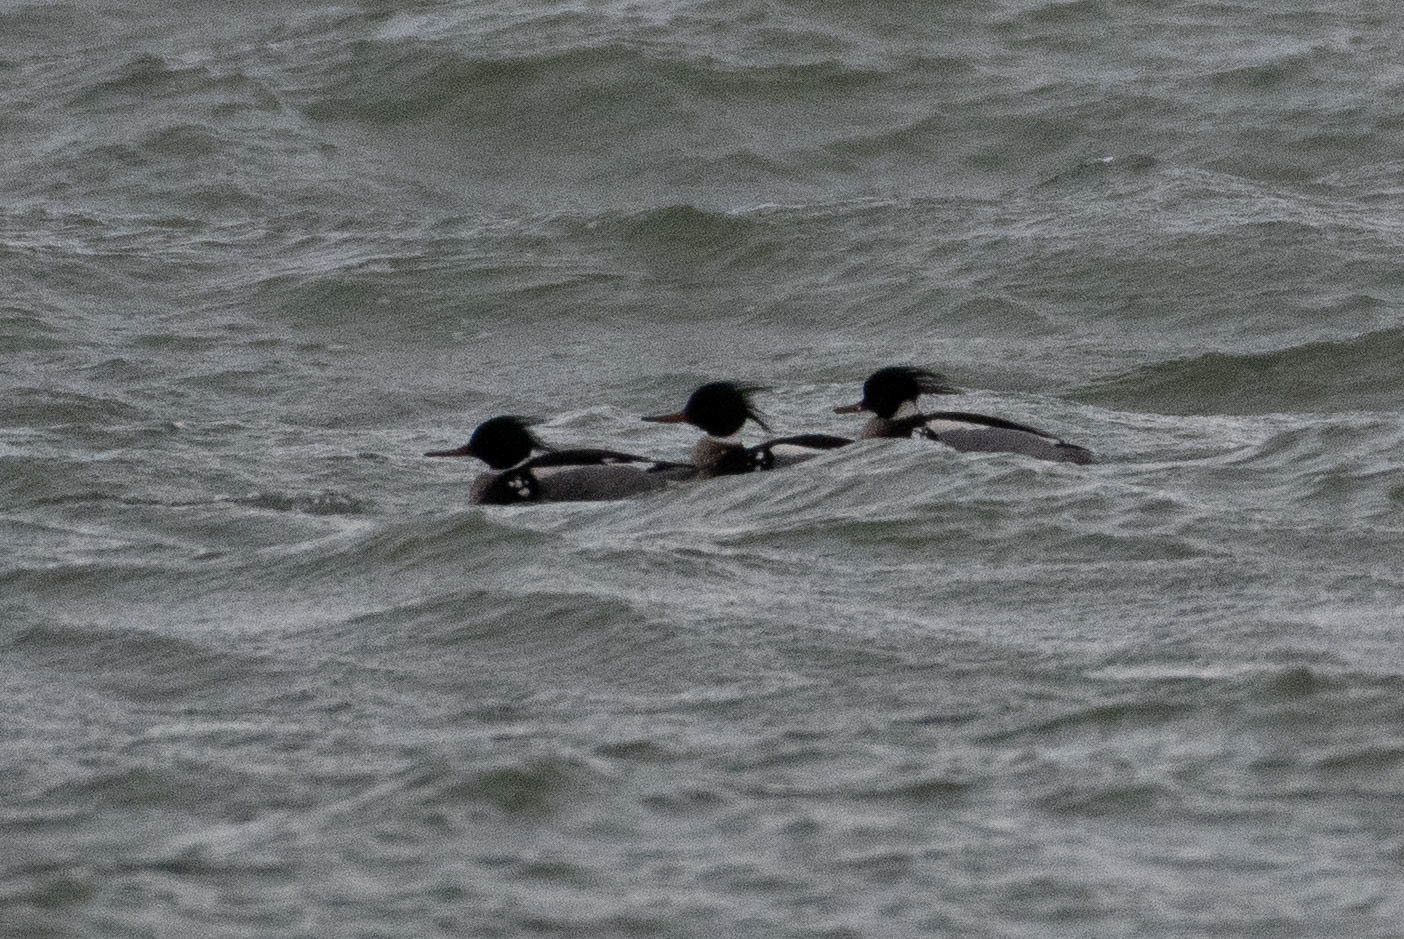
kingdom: Animalia
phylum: Chordata
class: Aves
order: Anseriformes
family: Anatidae
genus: Mergus
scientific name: Mergus serrator
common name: Red-breasted merganser
